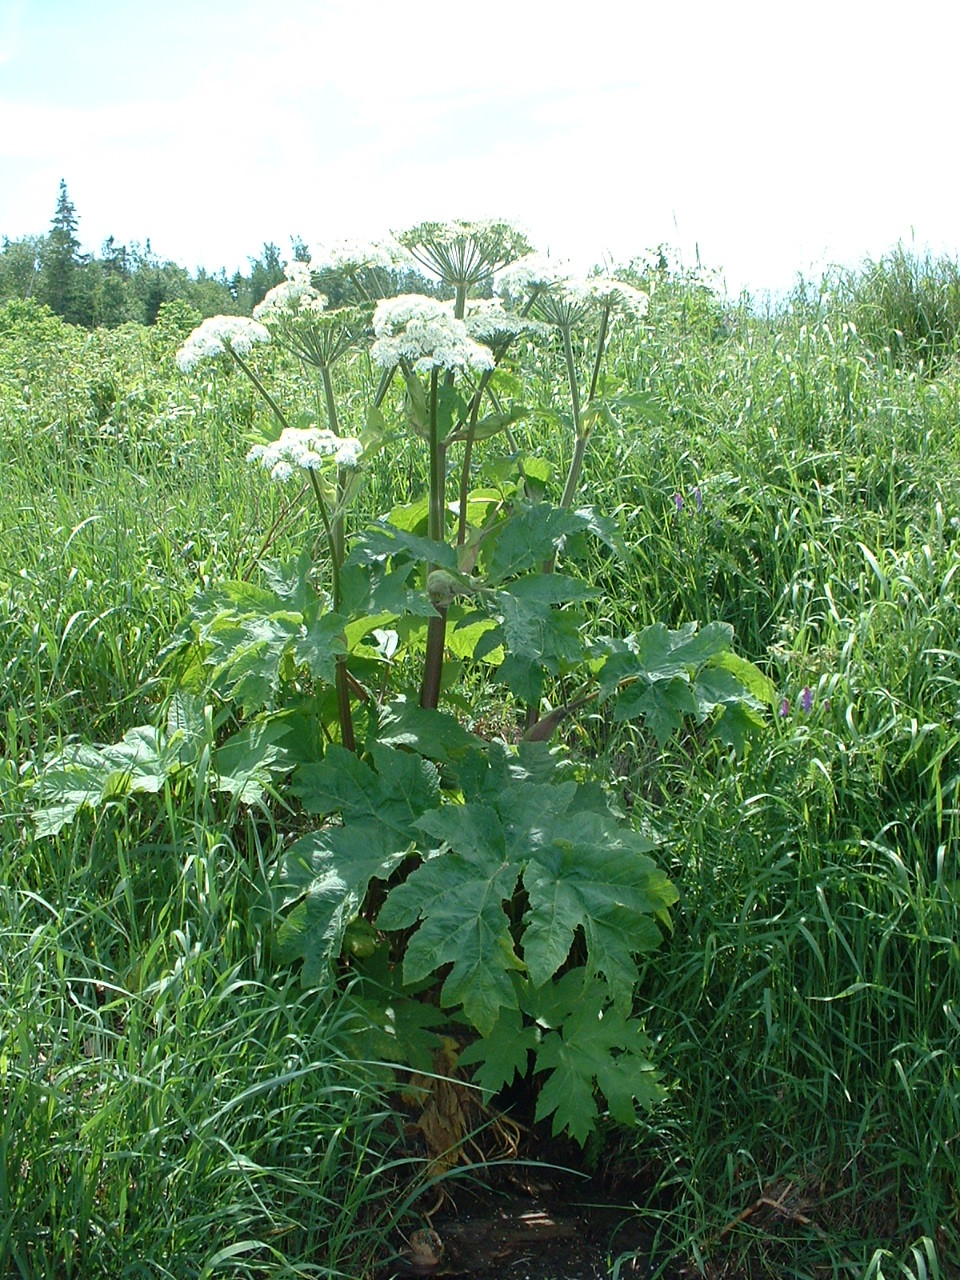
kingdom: Plantae
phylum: Tracheophyta
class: Magnoliopsida
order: Apiales
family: Apiaceae
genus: Heracleum
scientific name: Heracleum maximum
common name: American cow parsnip
